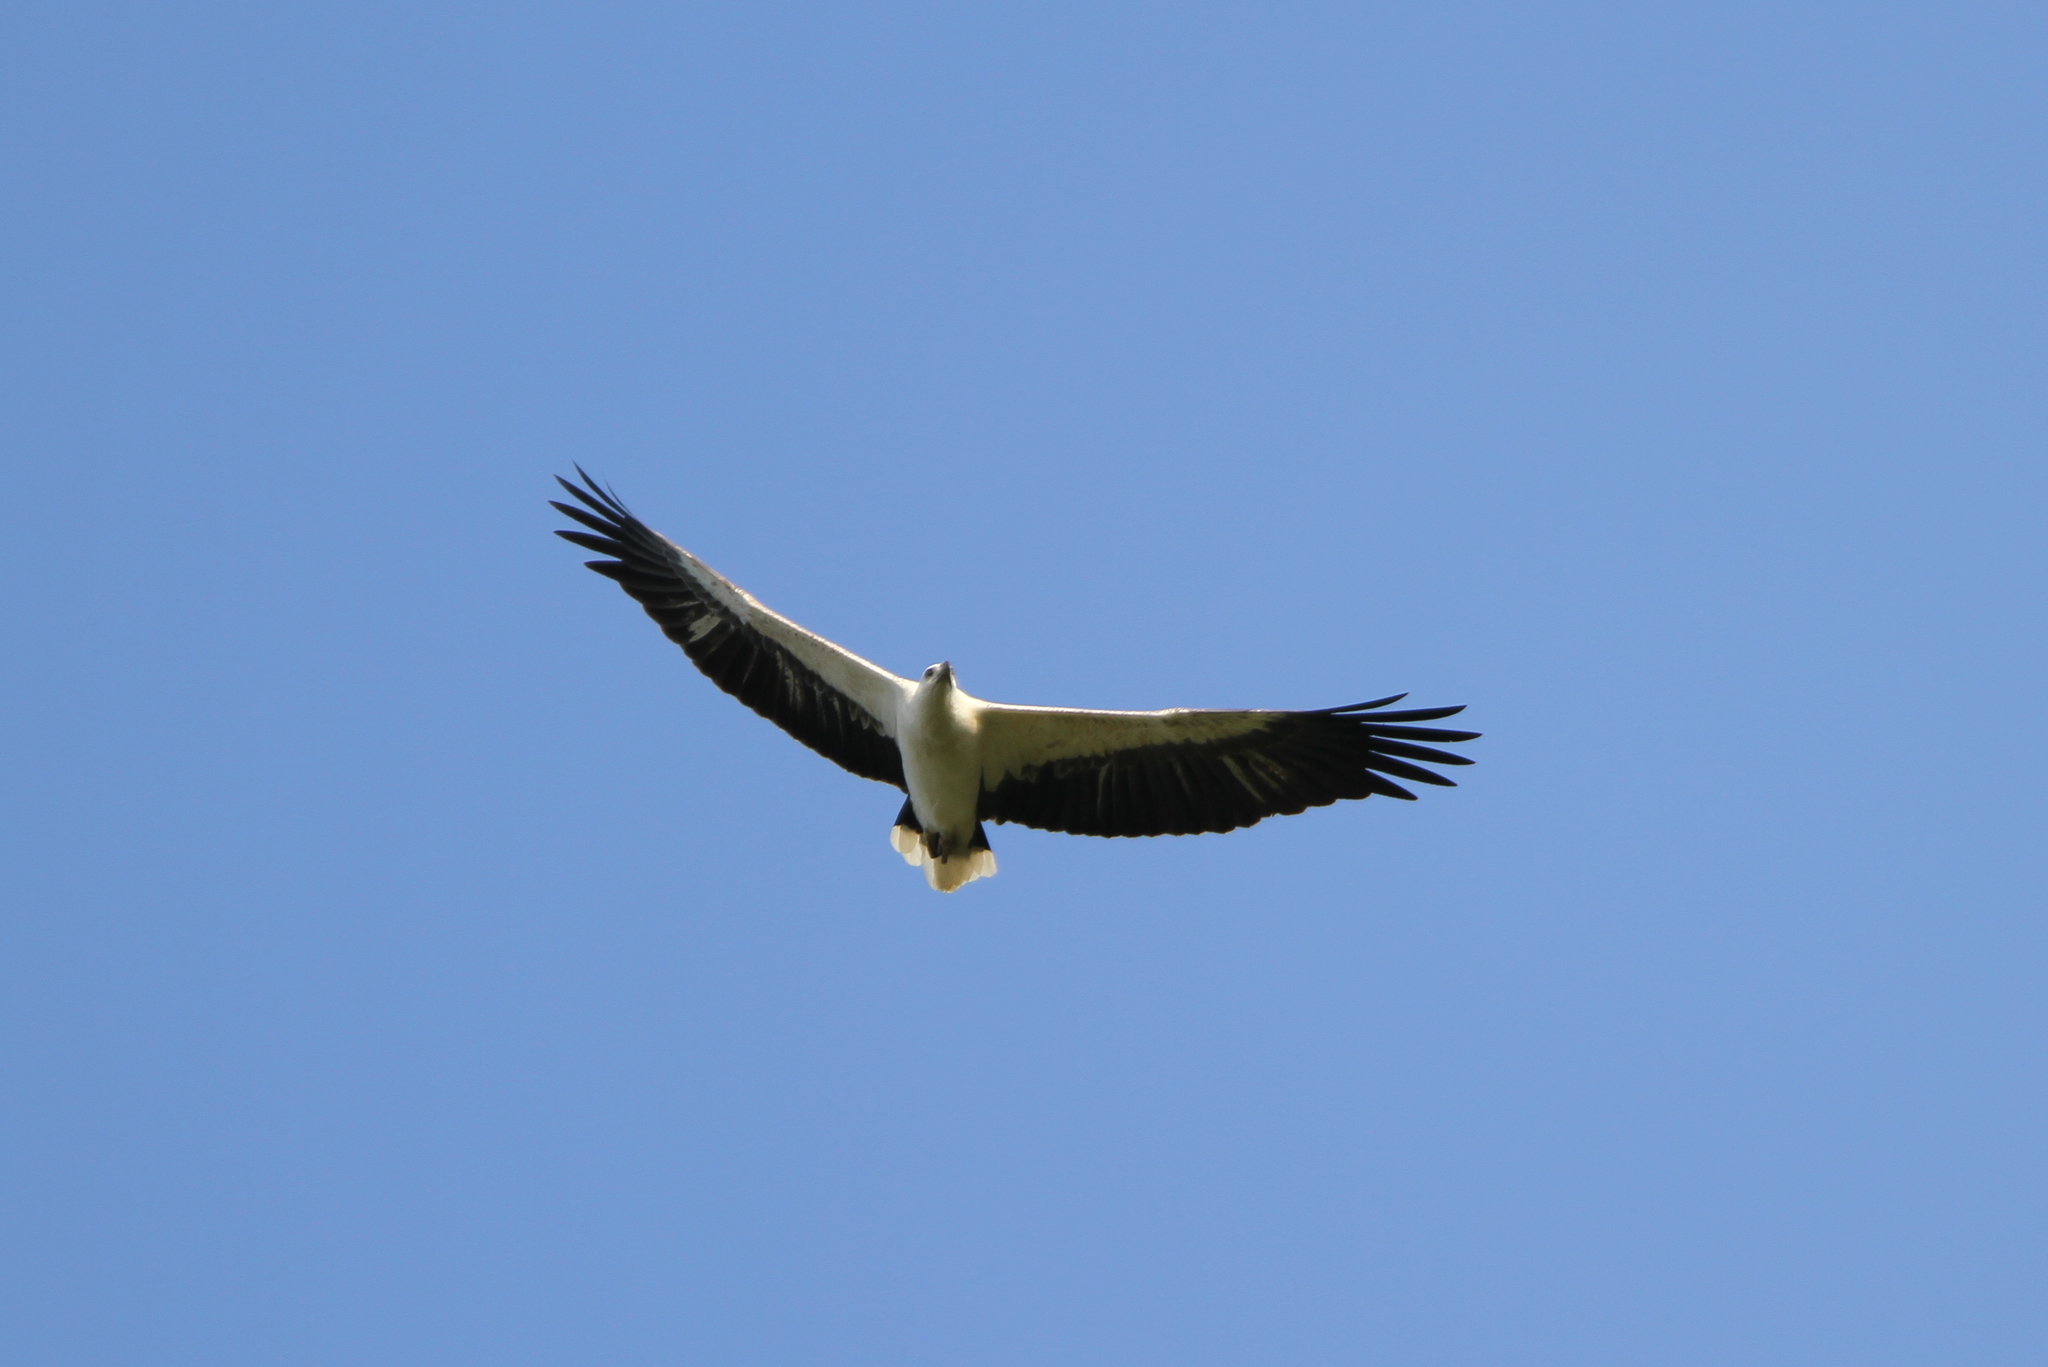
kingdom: Animalia
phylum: Chordata
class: Aves
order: Accipitriformes
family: Accipitridae
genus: Haliaeetus
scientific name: Haliaeetus leucogaster
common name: White-bellied sea eagle
